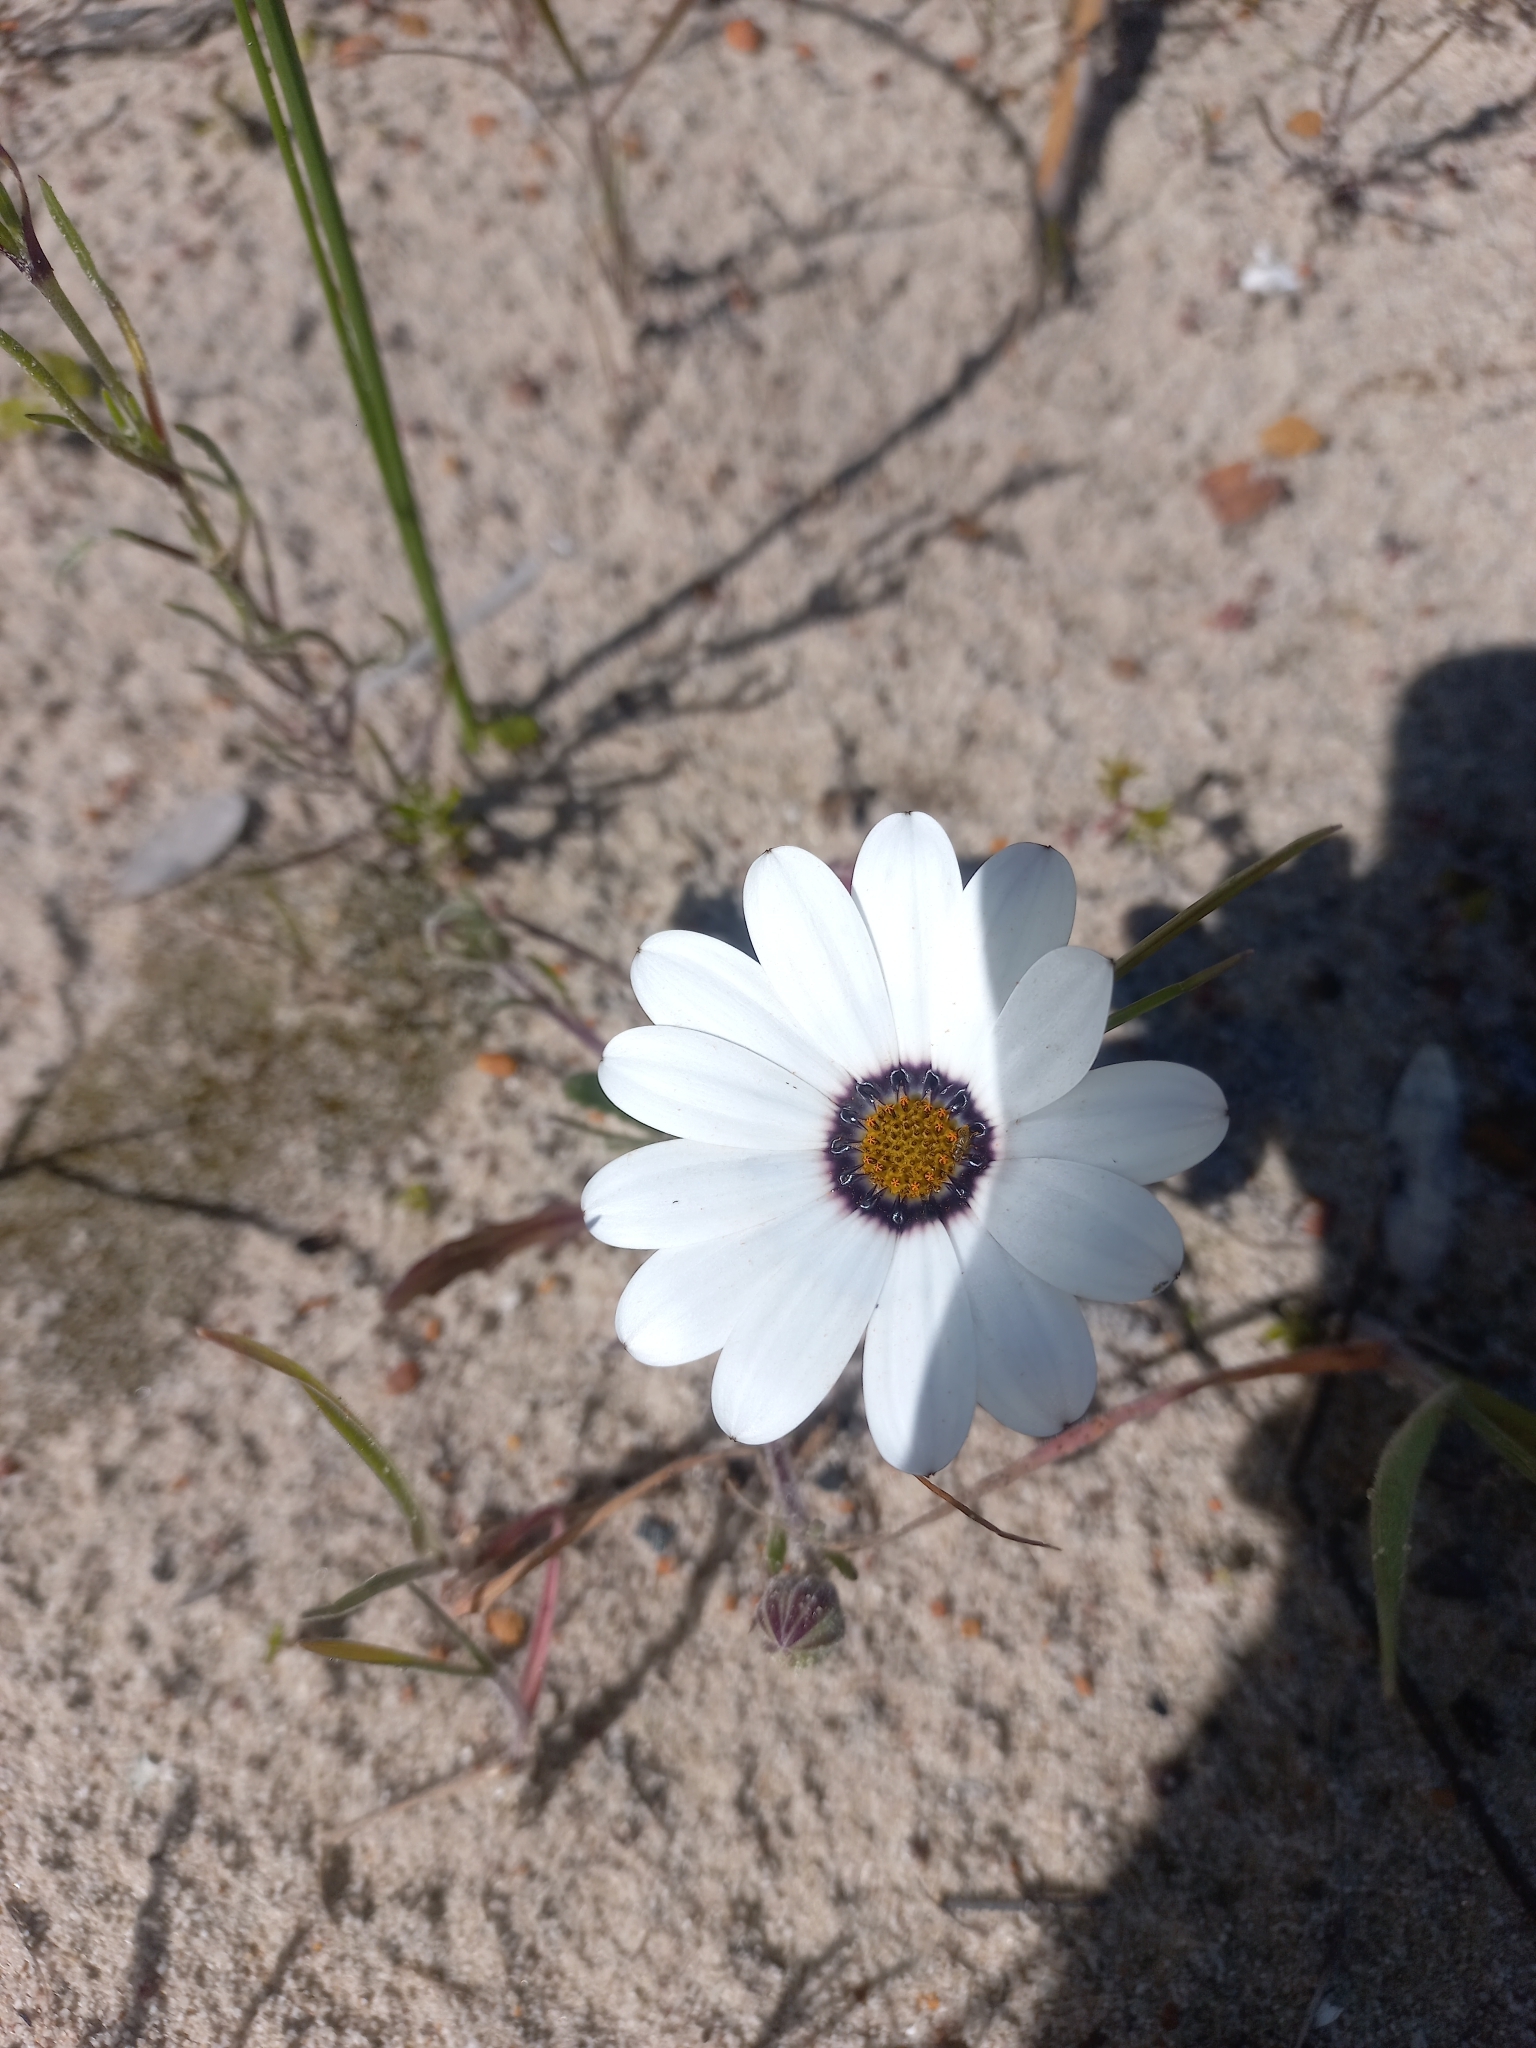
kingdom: Plantae
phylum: Tracheophyta
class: Magnoliopsida
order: Asterales
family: Asteraceae
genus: Dimorphotheca
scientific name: Dimorphotheca fruticosa
